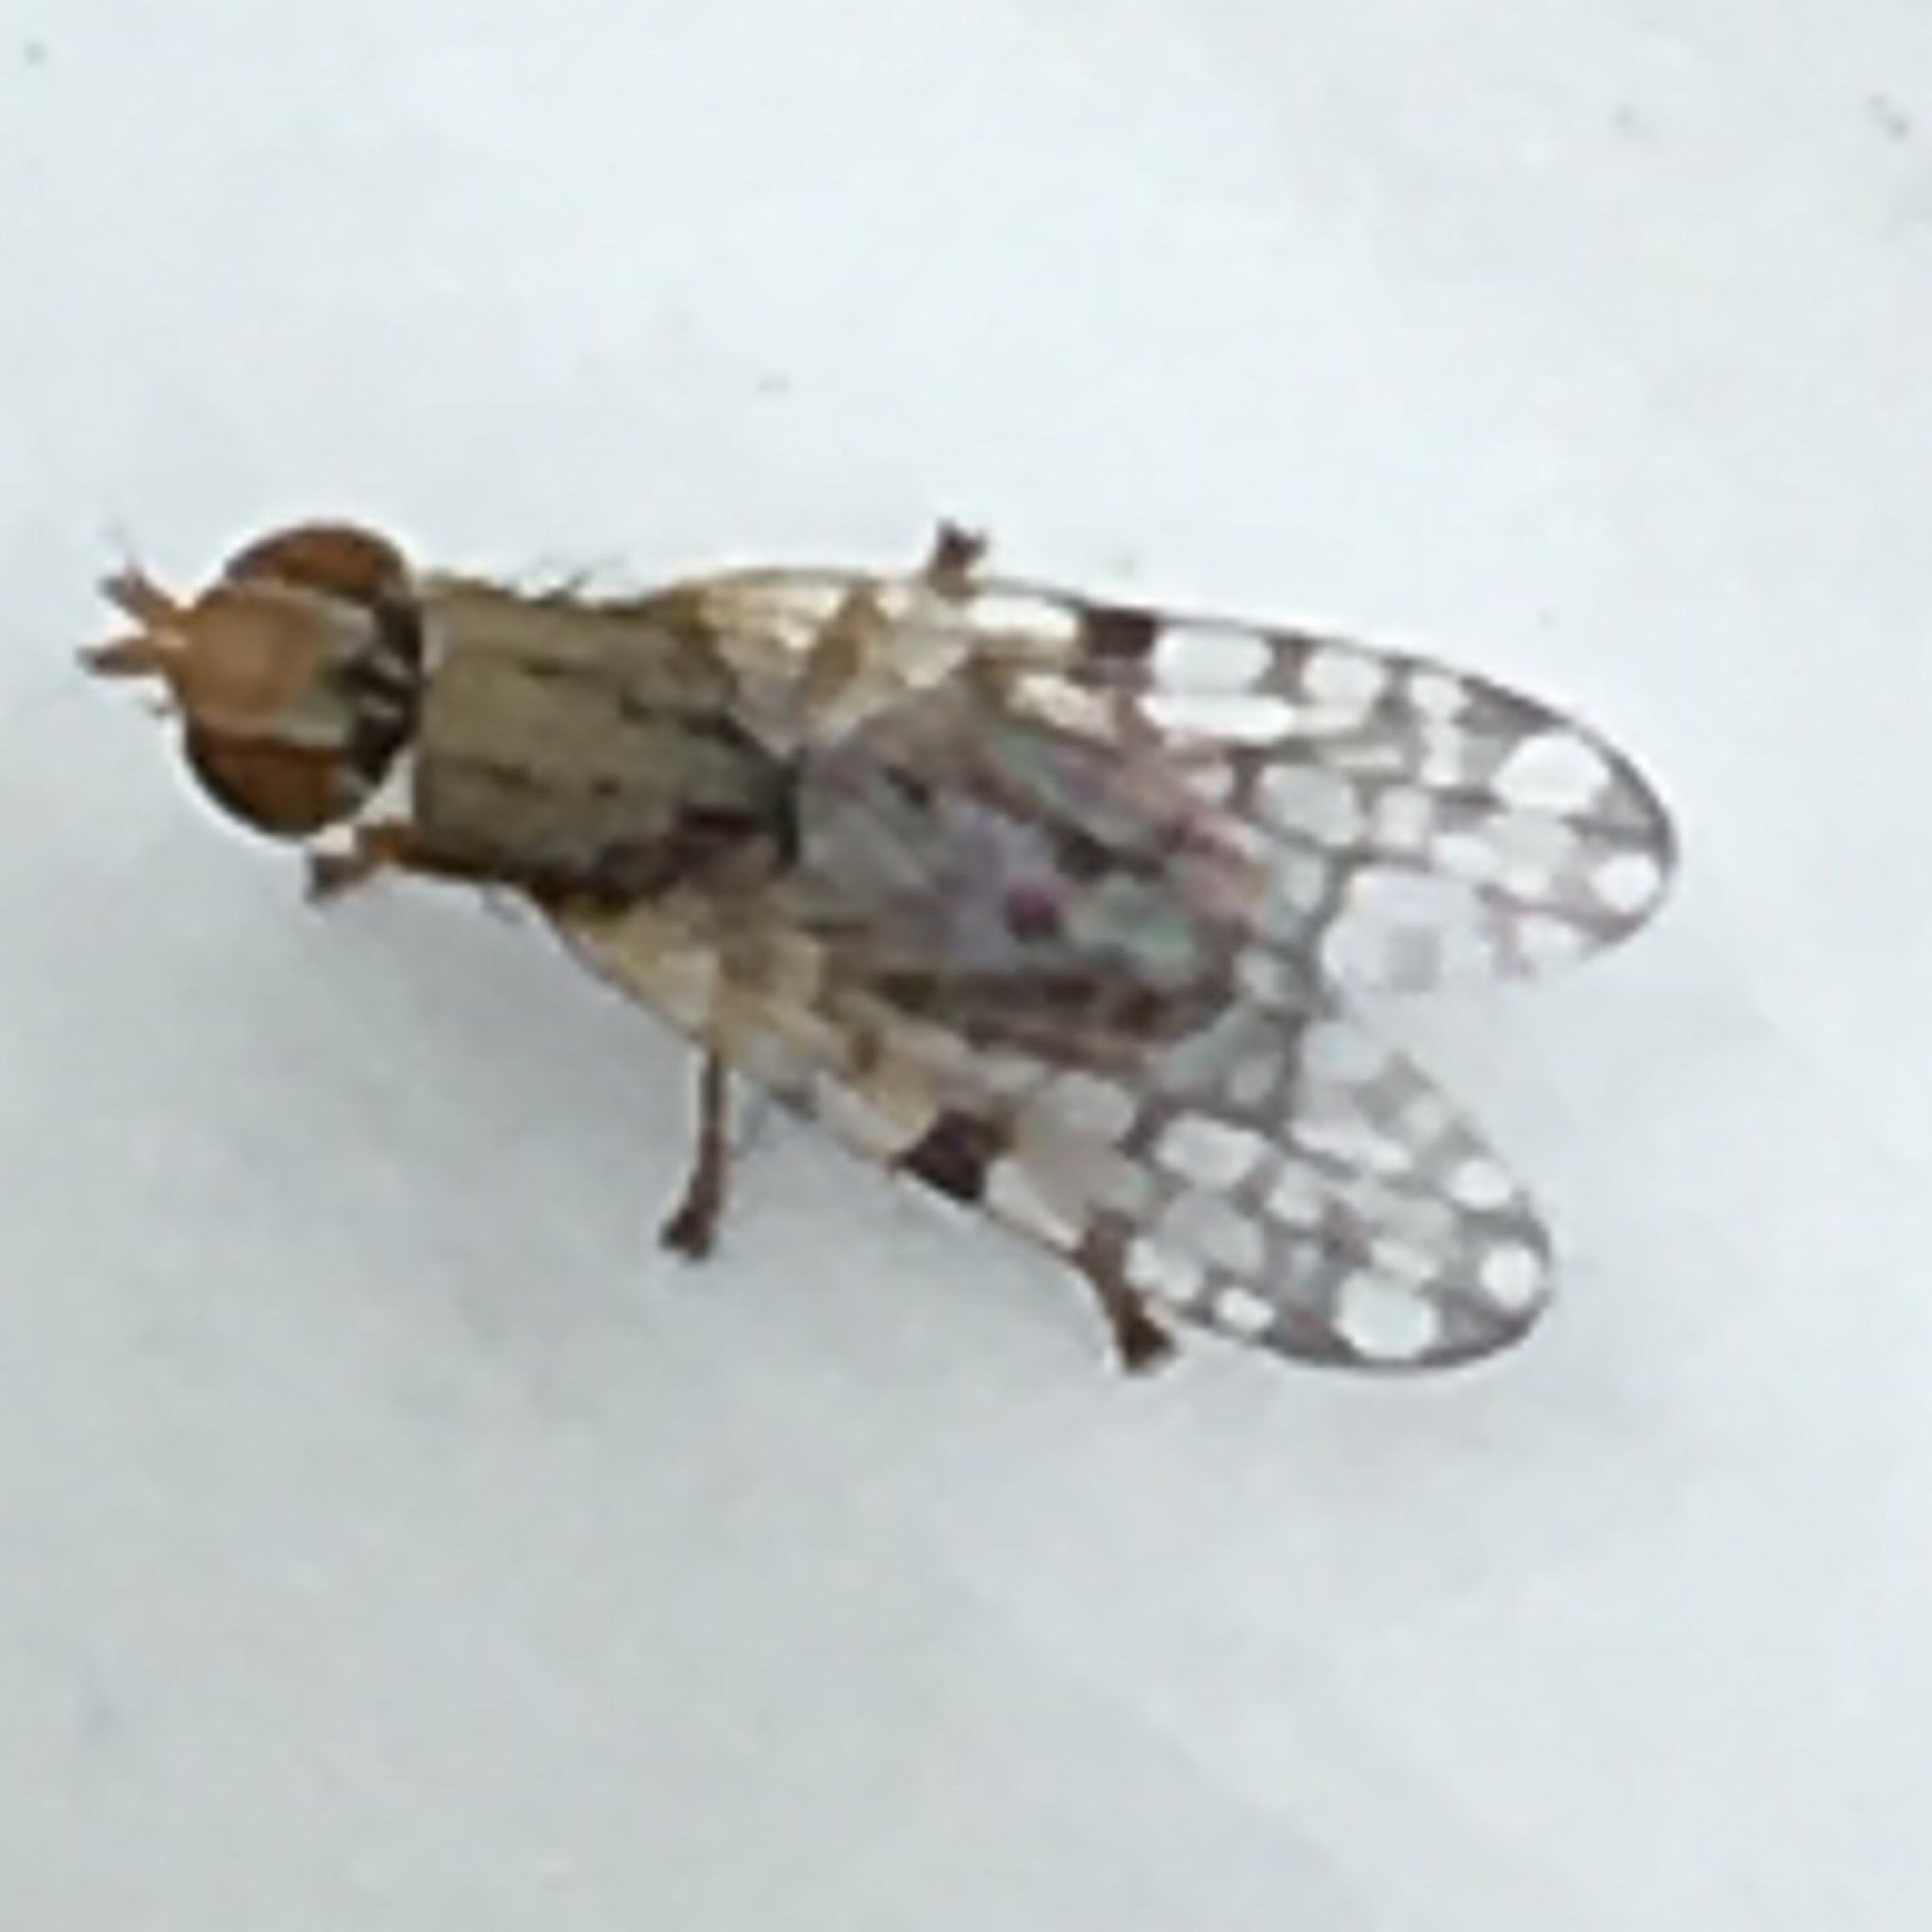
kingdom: Animalia
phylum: Arthropoda
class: Insecta
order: Diptera
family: Tephritidae
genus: Dioxyna
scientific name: Dioxyna picciola
